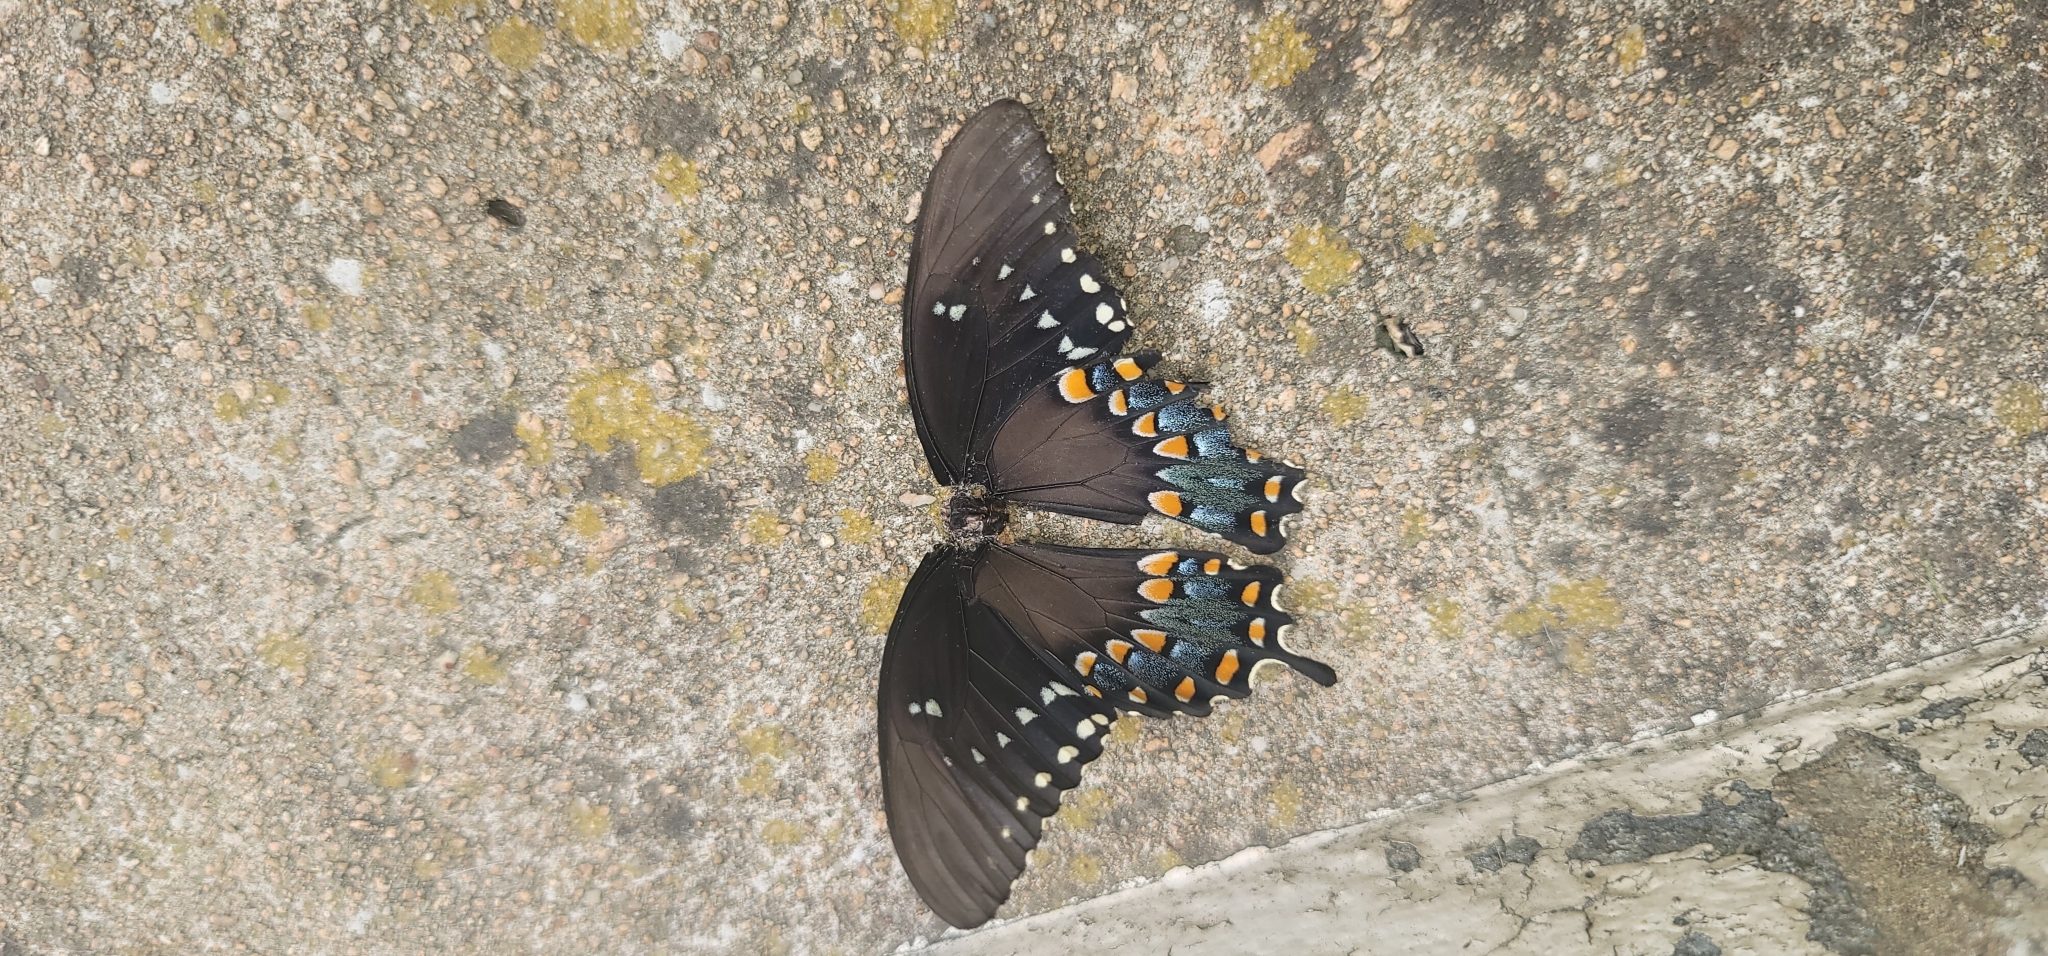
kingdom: Animalia
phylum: Arthropoda
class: Insecta
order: Lepidoptera
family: Papilionidae
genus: Papilio
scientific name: Papilio troilus
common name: Spicebush swallowtail
